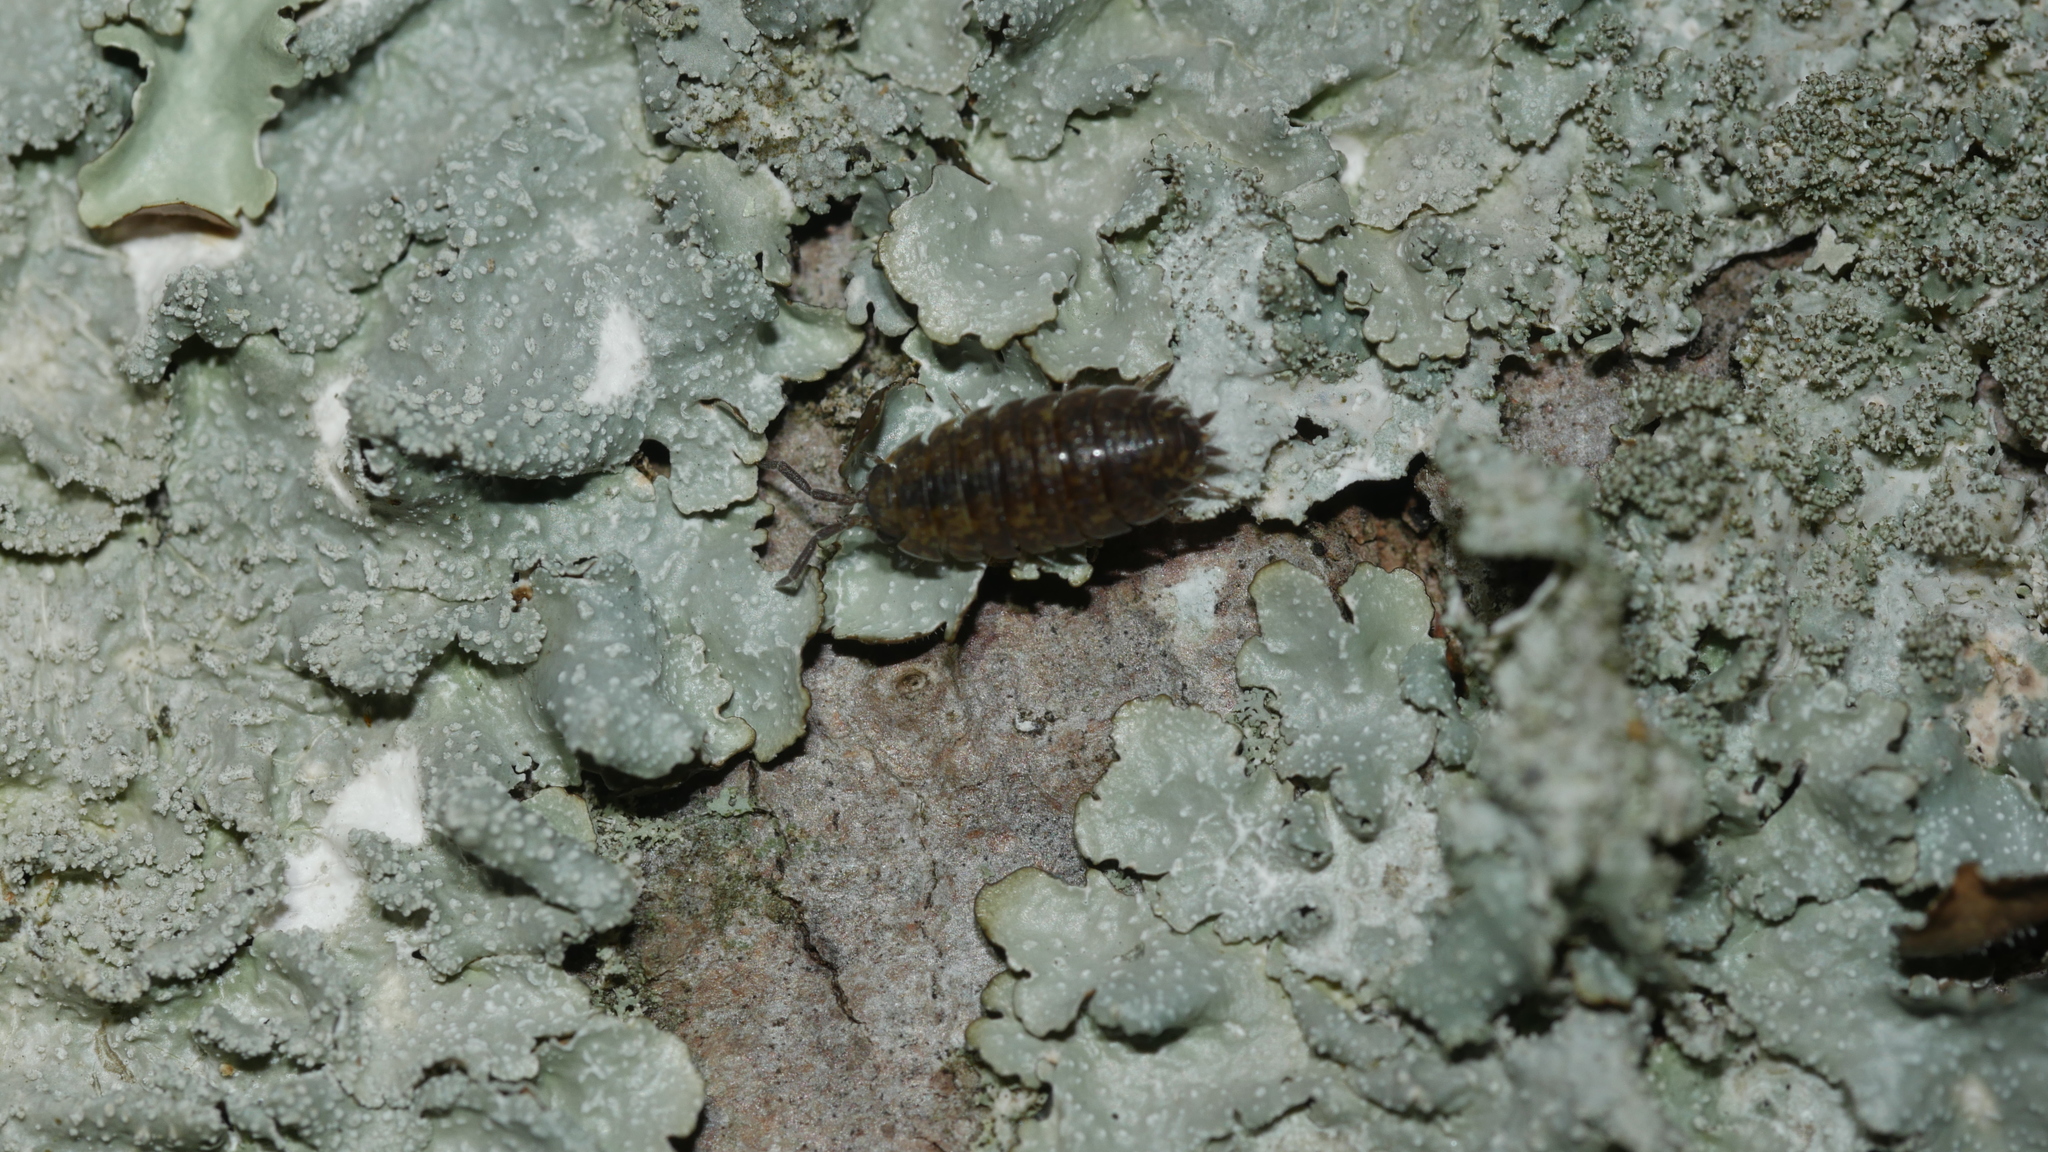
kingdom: Animalia
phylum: Arthropoda
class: Malacostraca
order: Isopoda
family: Porcellionidae
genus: Porcellio
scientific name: Porcellio scaber
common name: Common rough woodlouse
